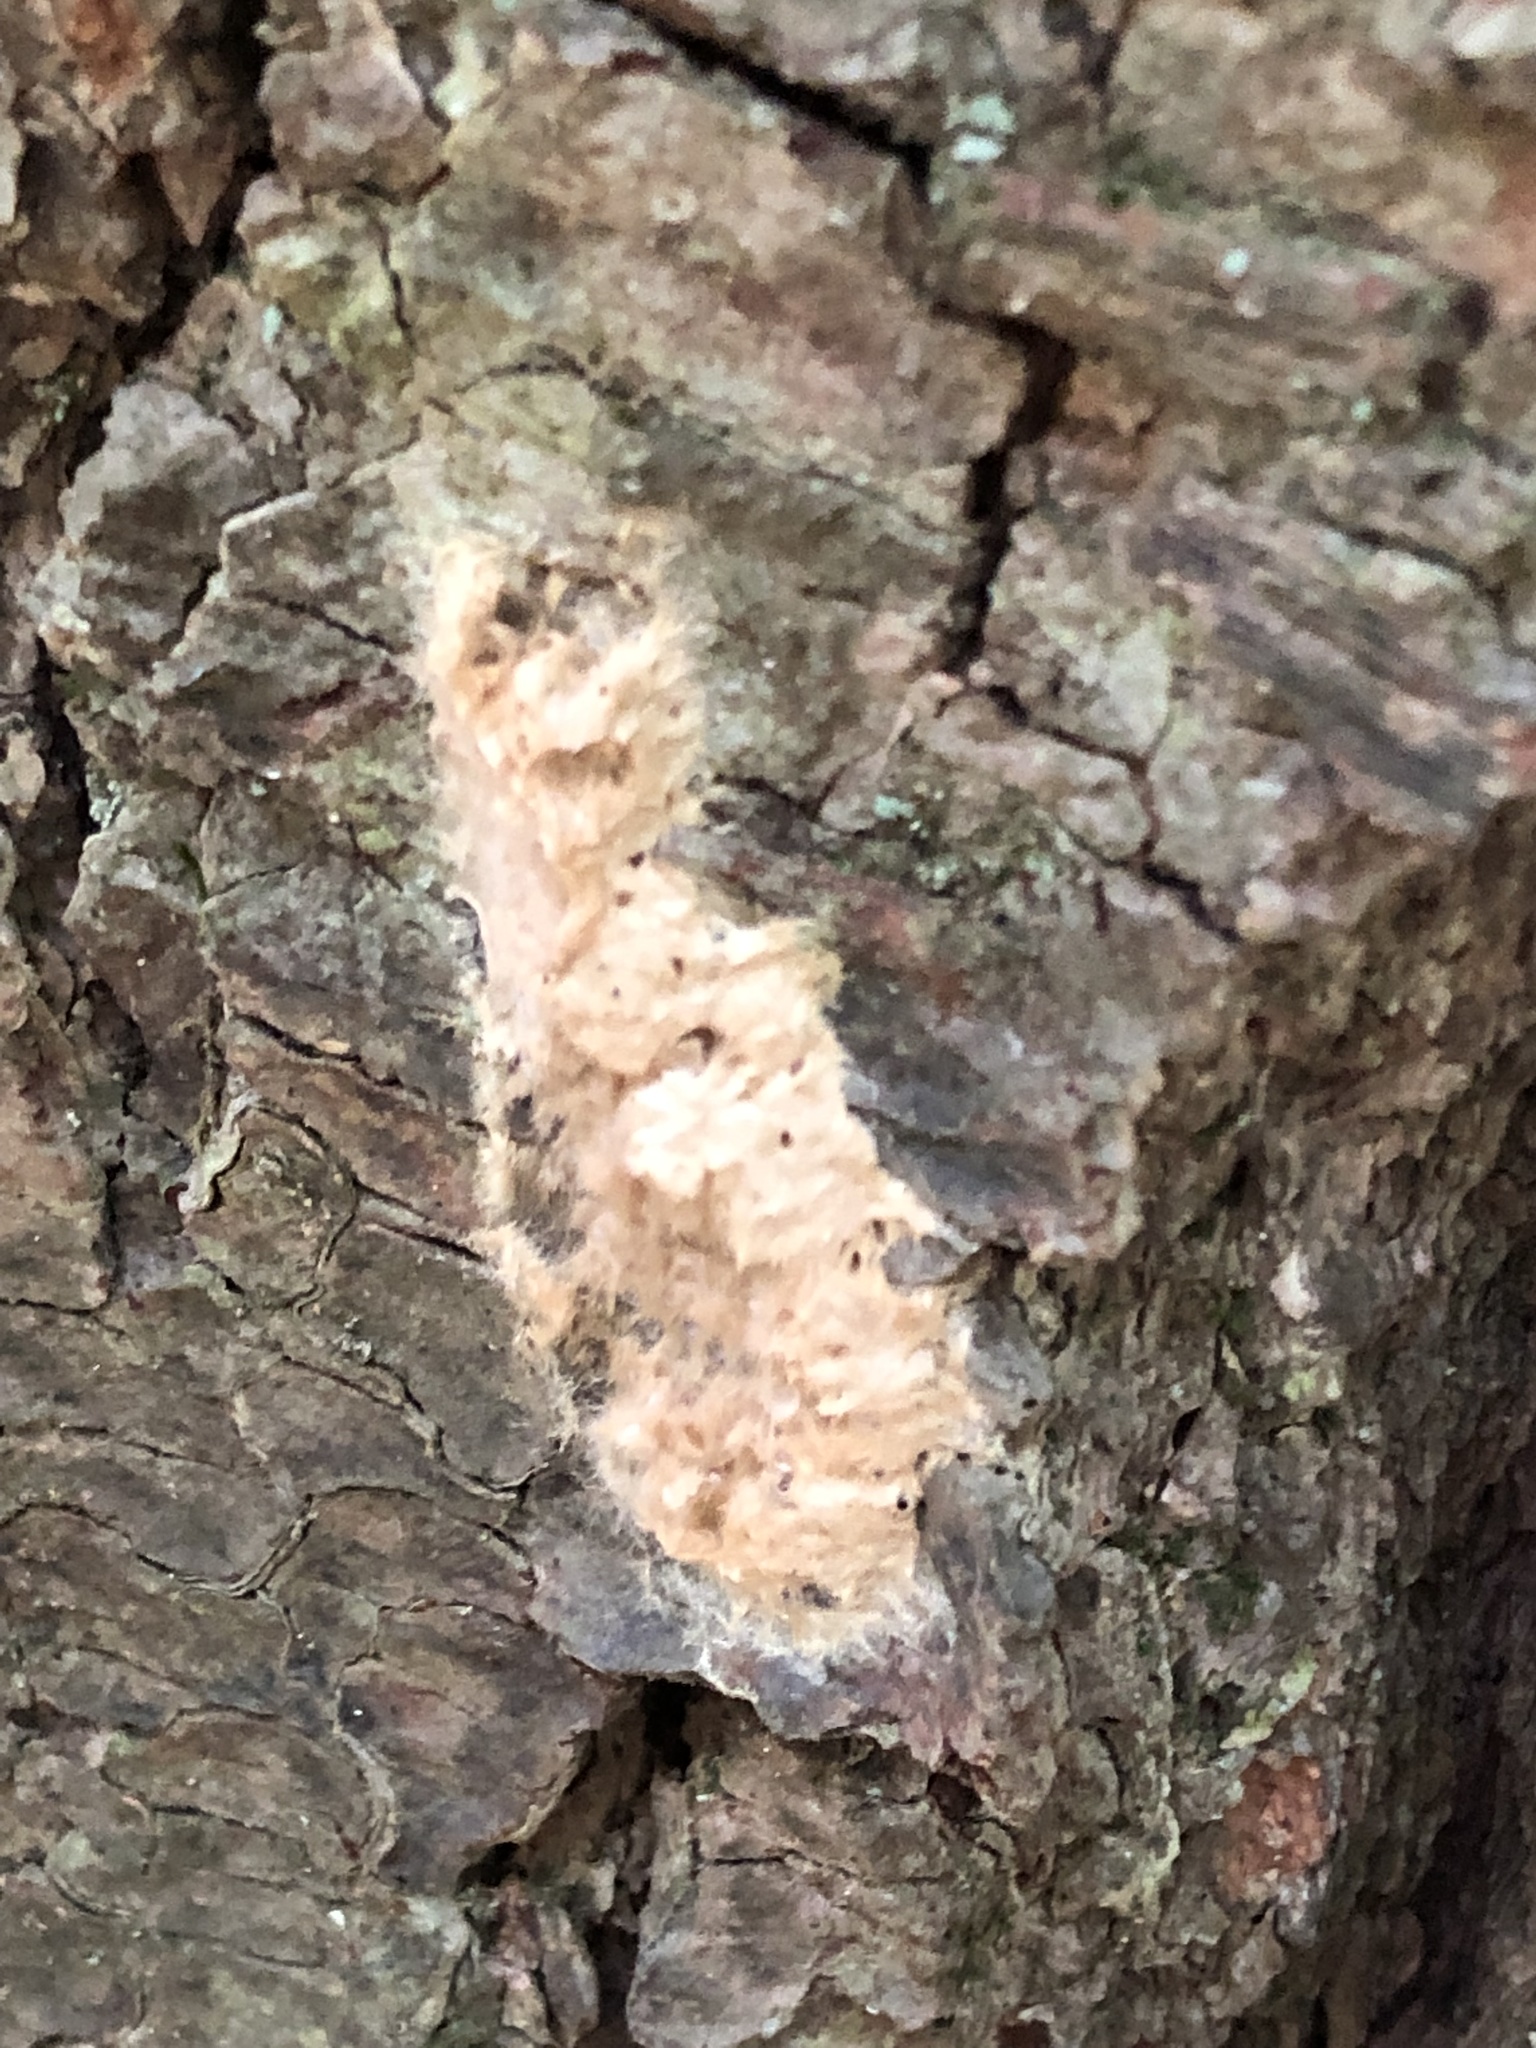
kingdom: Animalia
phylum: Arthropoda
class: Insecta
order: Lepidoptera
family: Erebidae
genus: Lymantria
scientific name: Lymantria dispar
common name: Gypsy moth
